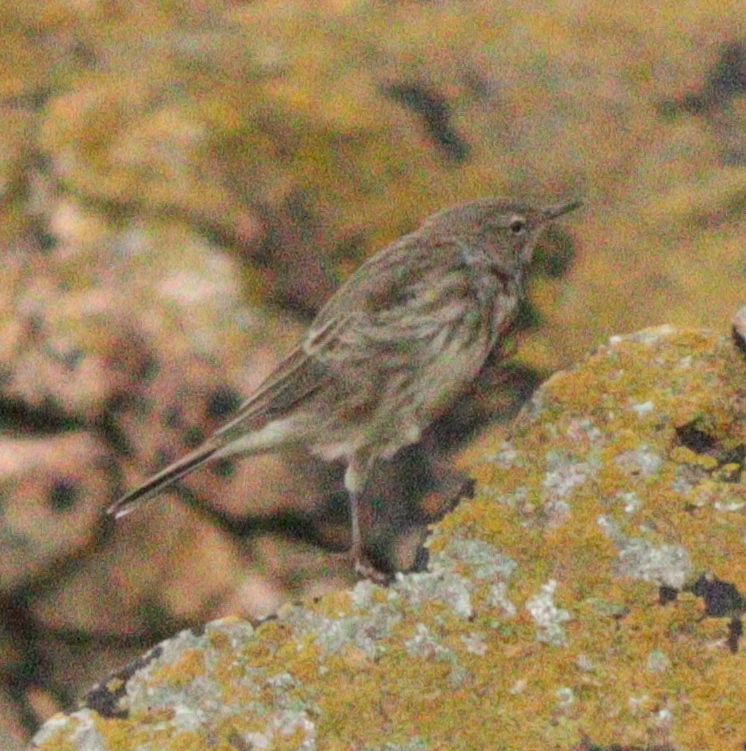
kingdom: Animalia
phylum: Chordata
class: Aves
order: Passeriformes
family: Motacillidae
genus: Anthus
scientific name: Anthus petrosus
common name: Eurasian rock pipit
